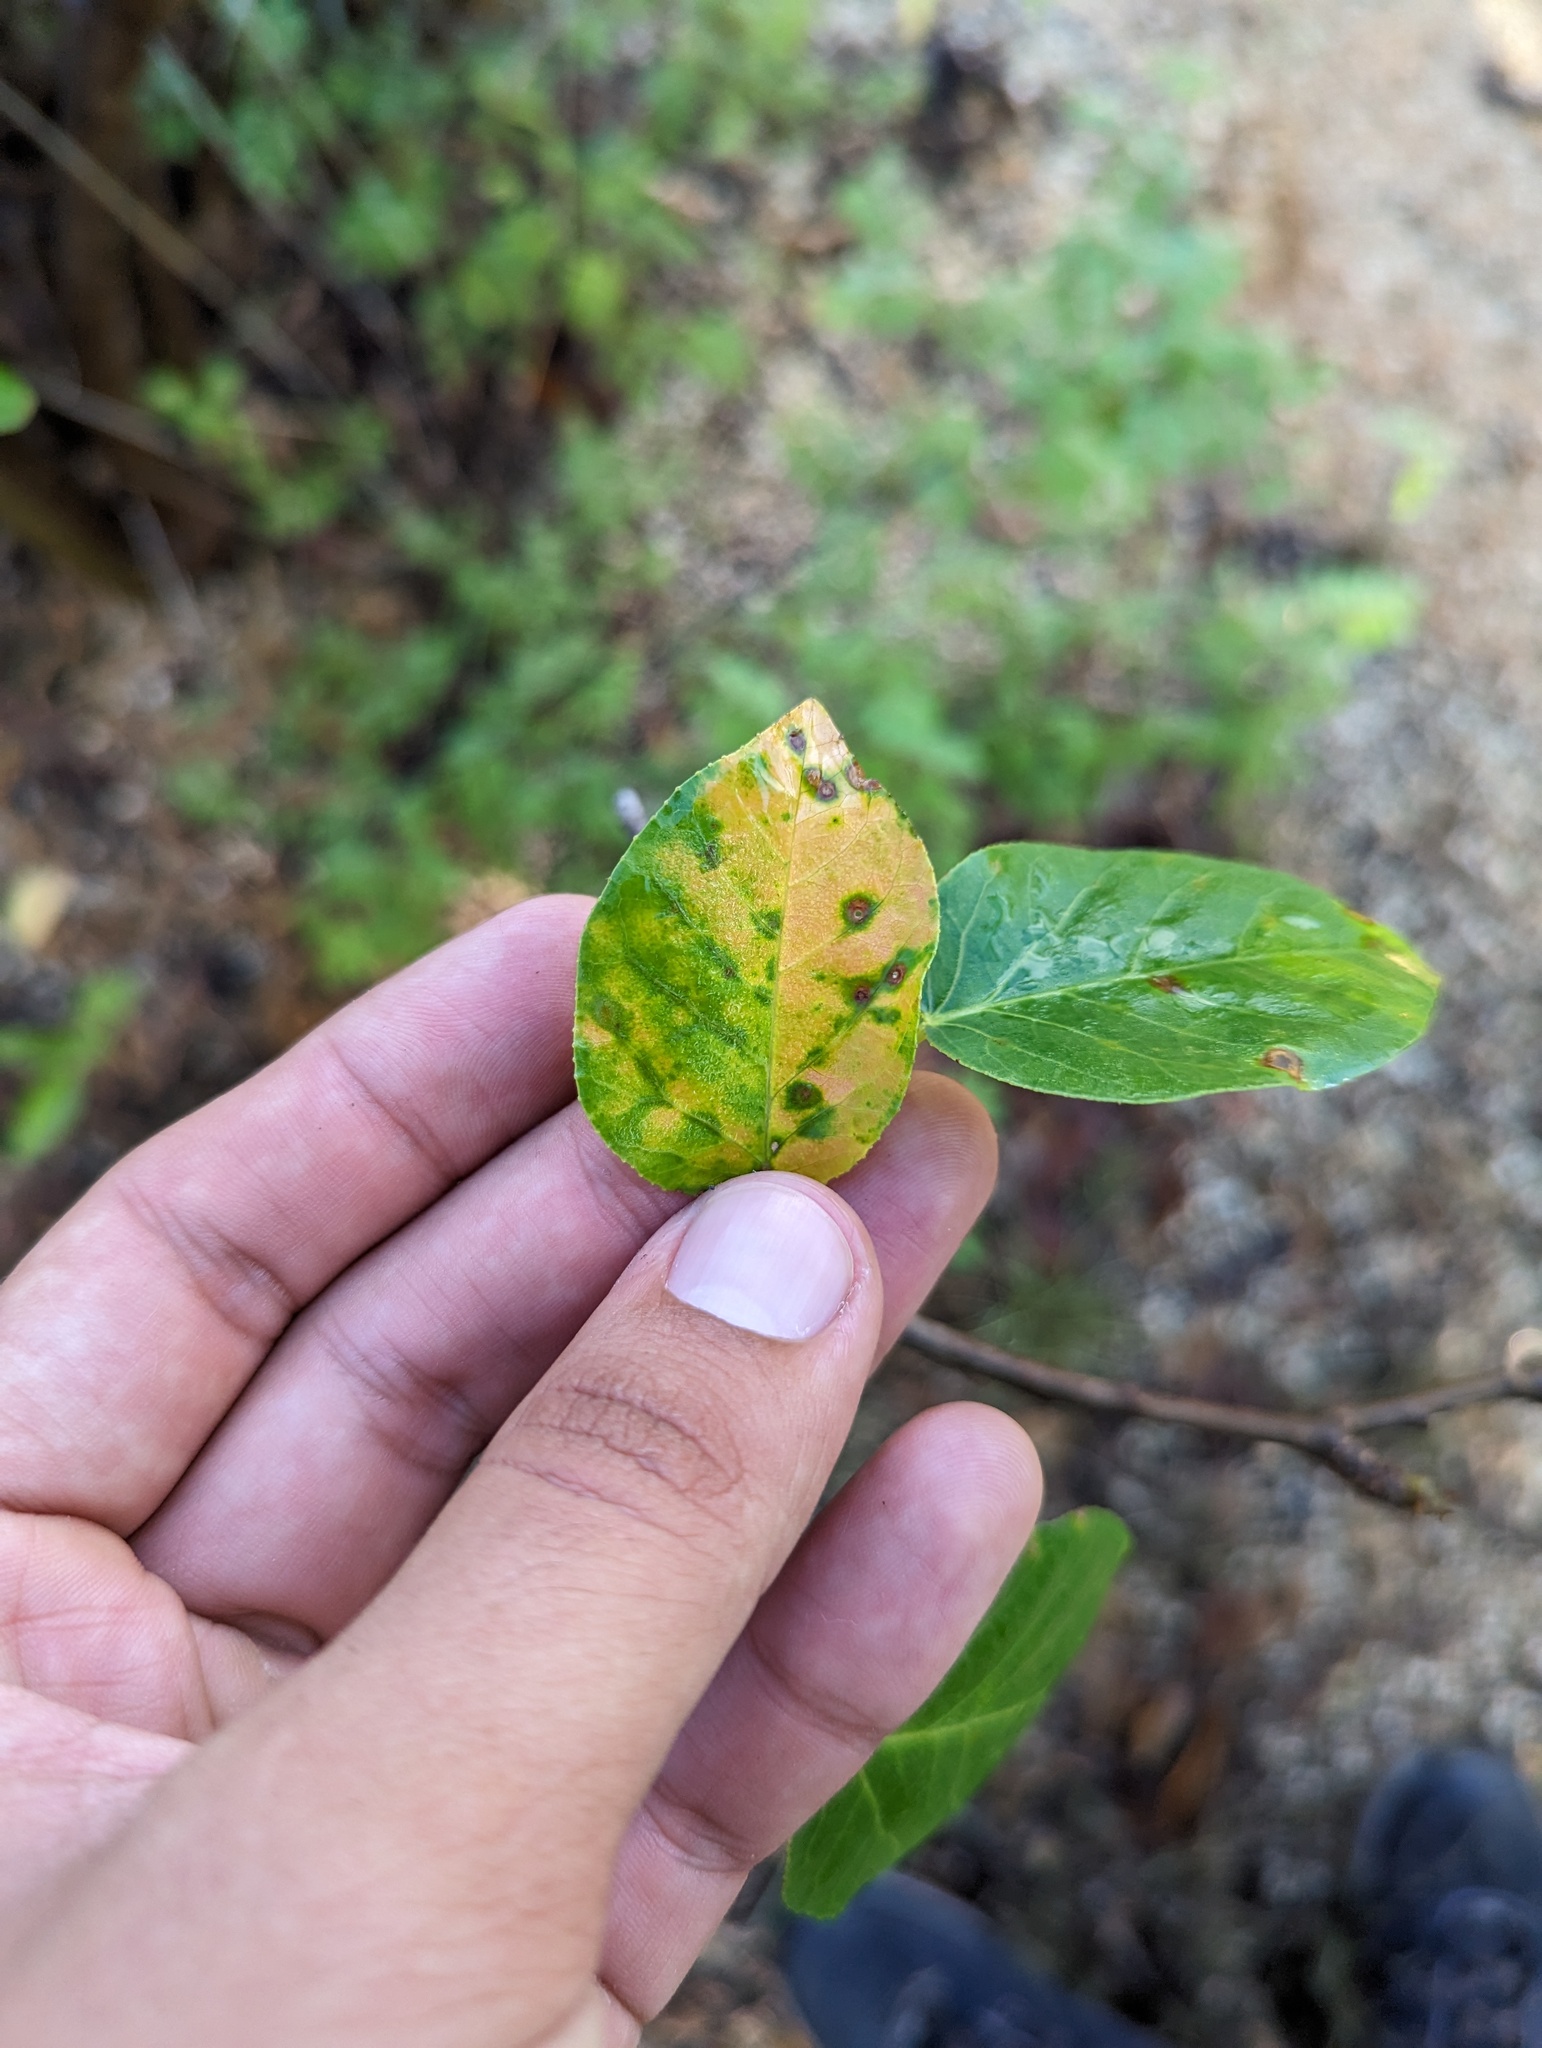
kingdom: Plantae
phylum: Tracheophyta
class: Magnoliopsida
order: Malpighiales
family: Euphorbiaceae
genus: Jatropha
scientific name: Jatropha vernicosa
